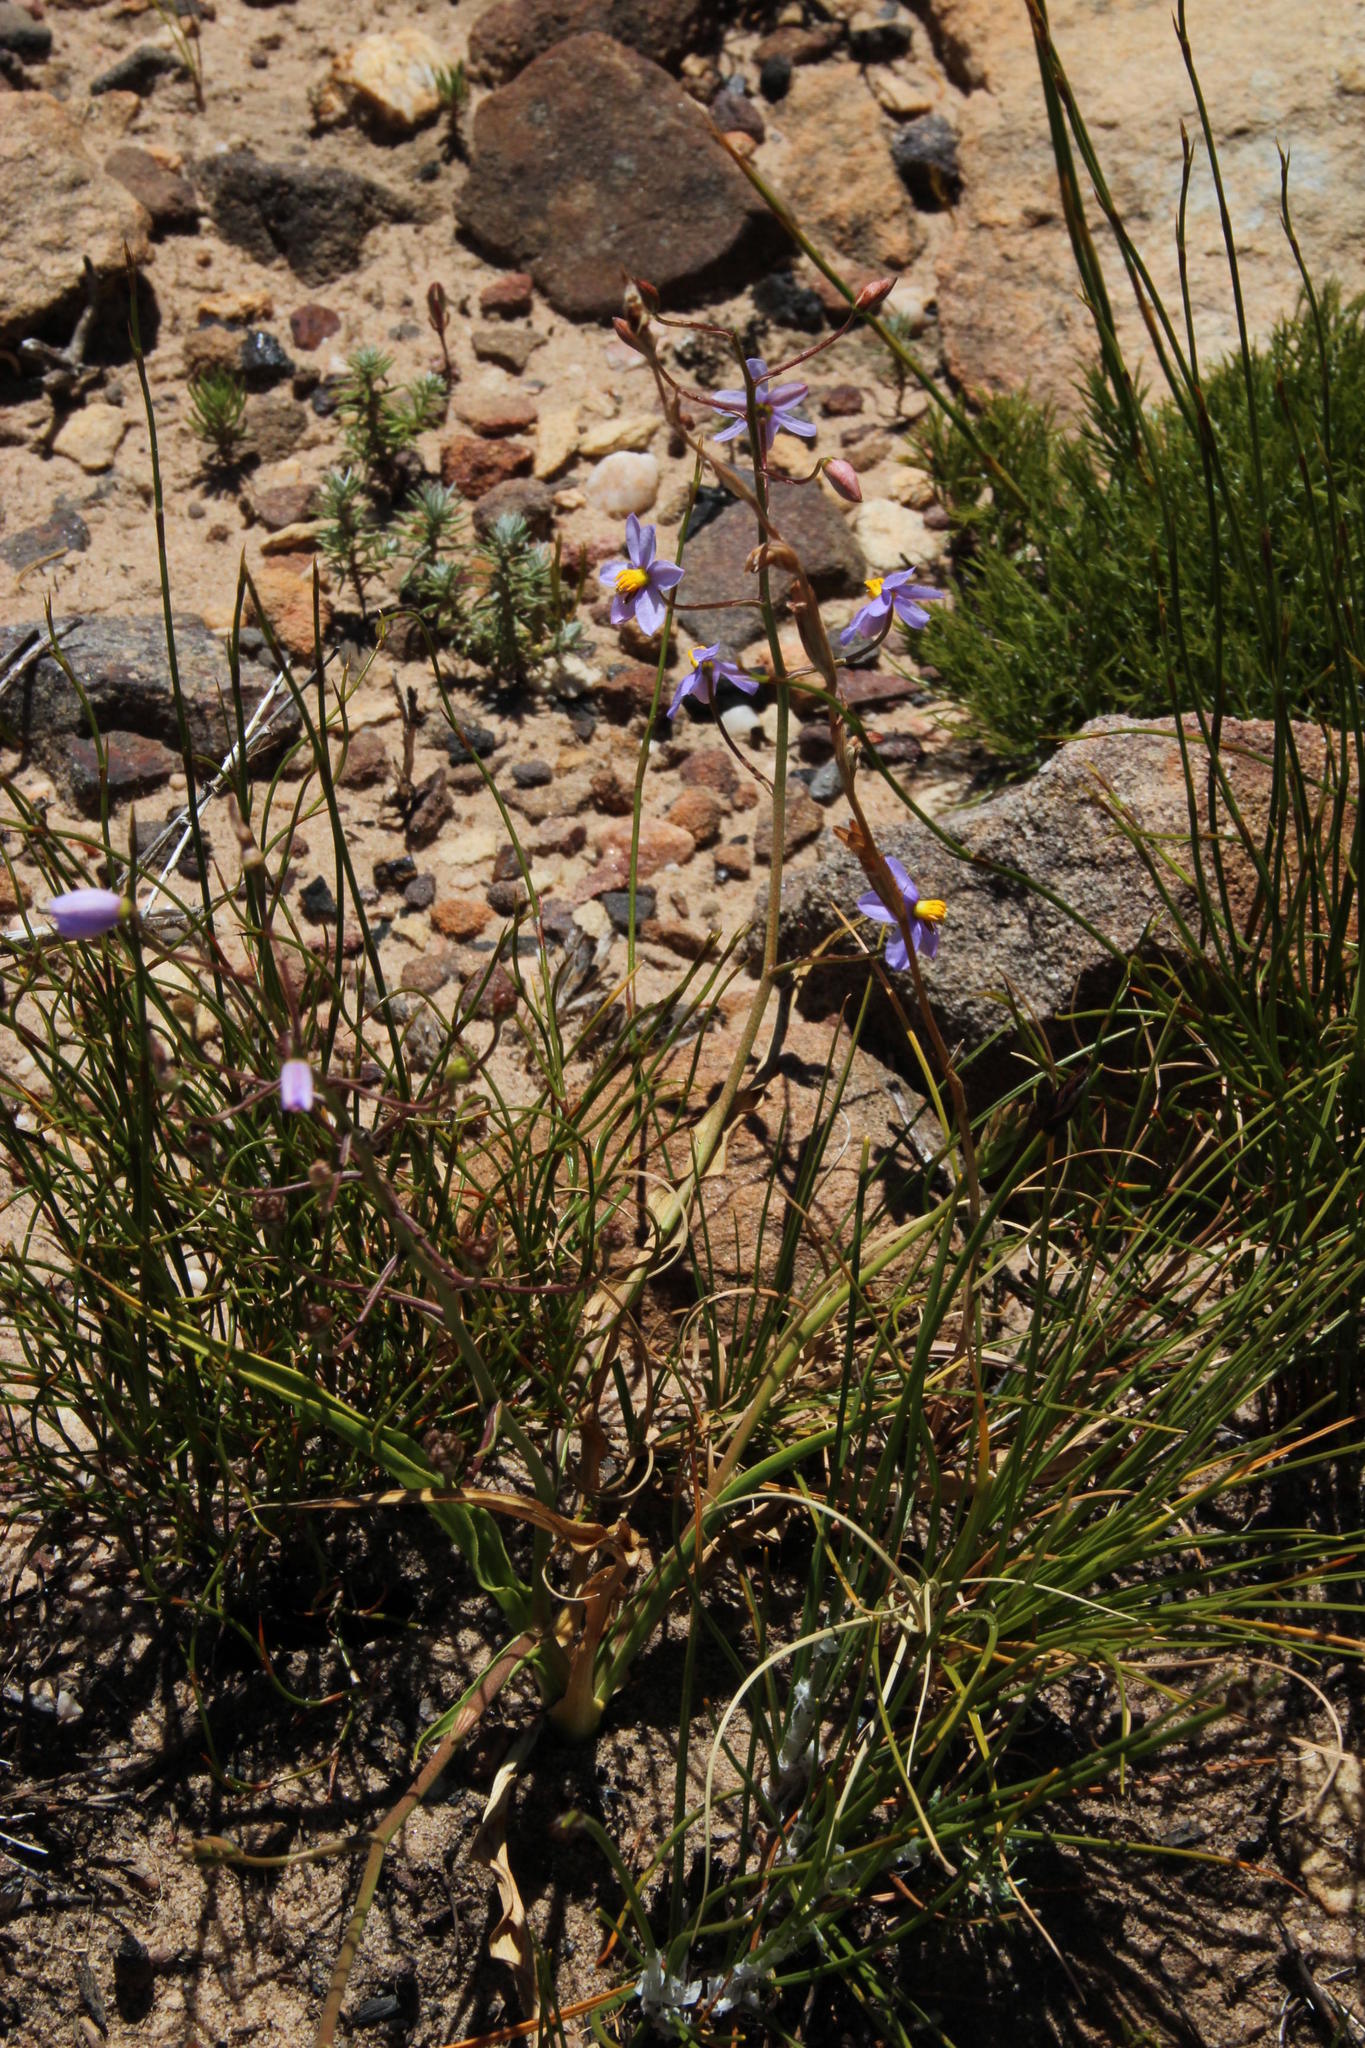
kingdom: Plantae
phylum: Tracheophyta
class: Liliopsida
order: Asparagales
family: Tecophilaeaceae
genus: Cyanella
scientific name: Cyanella hyacinthoides
